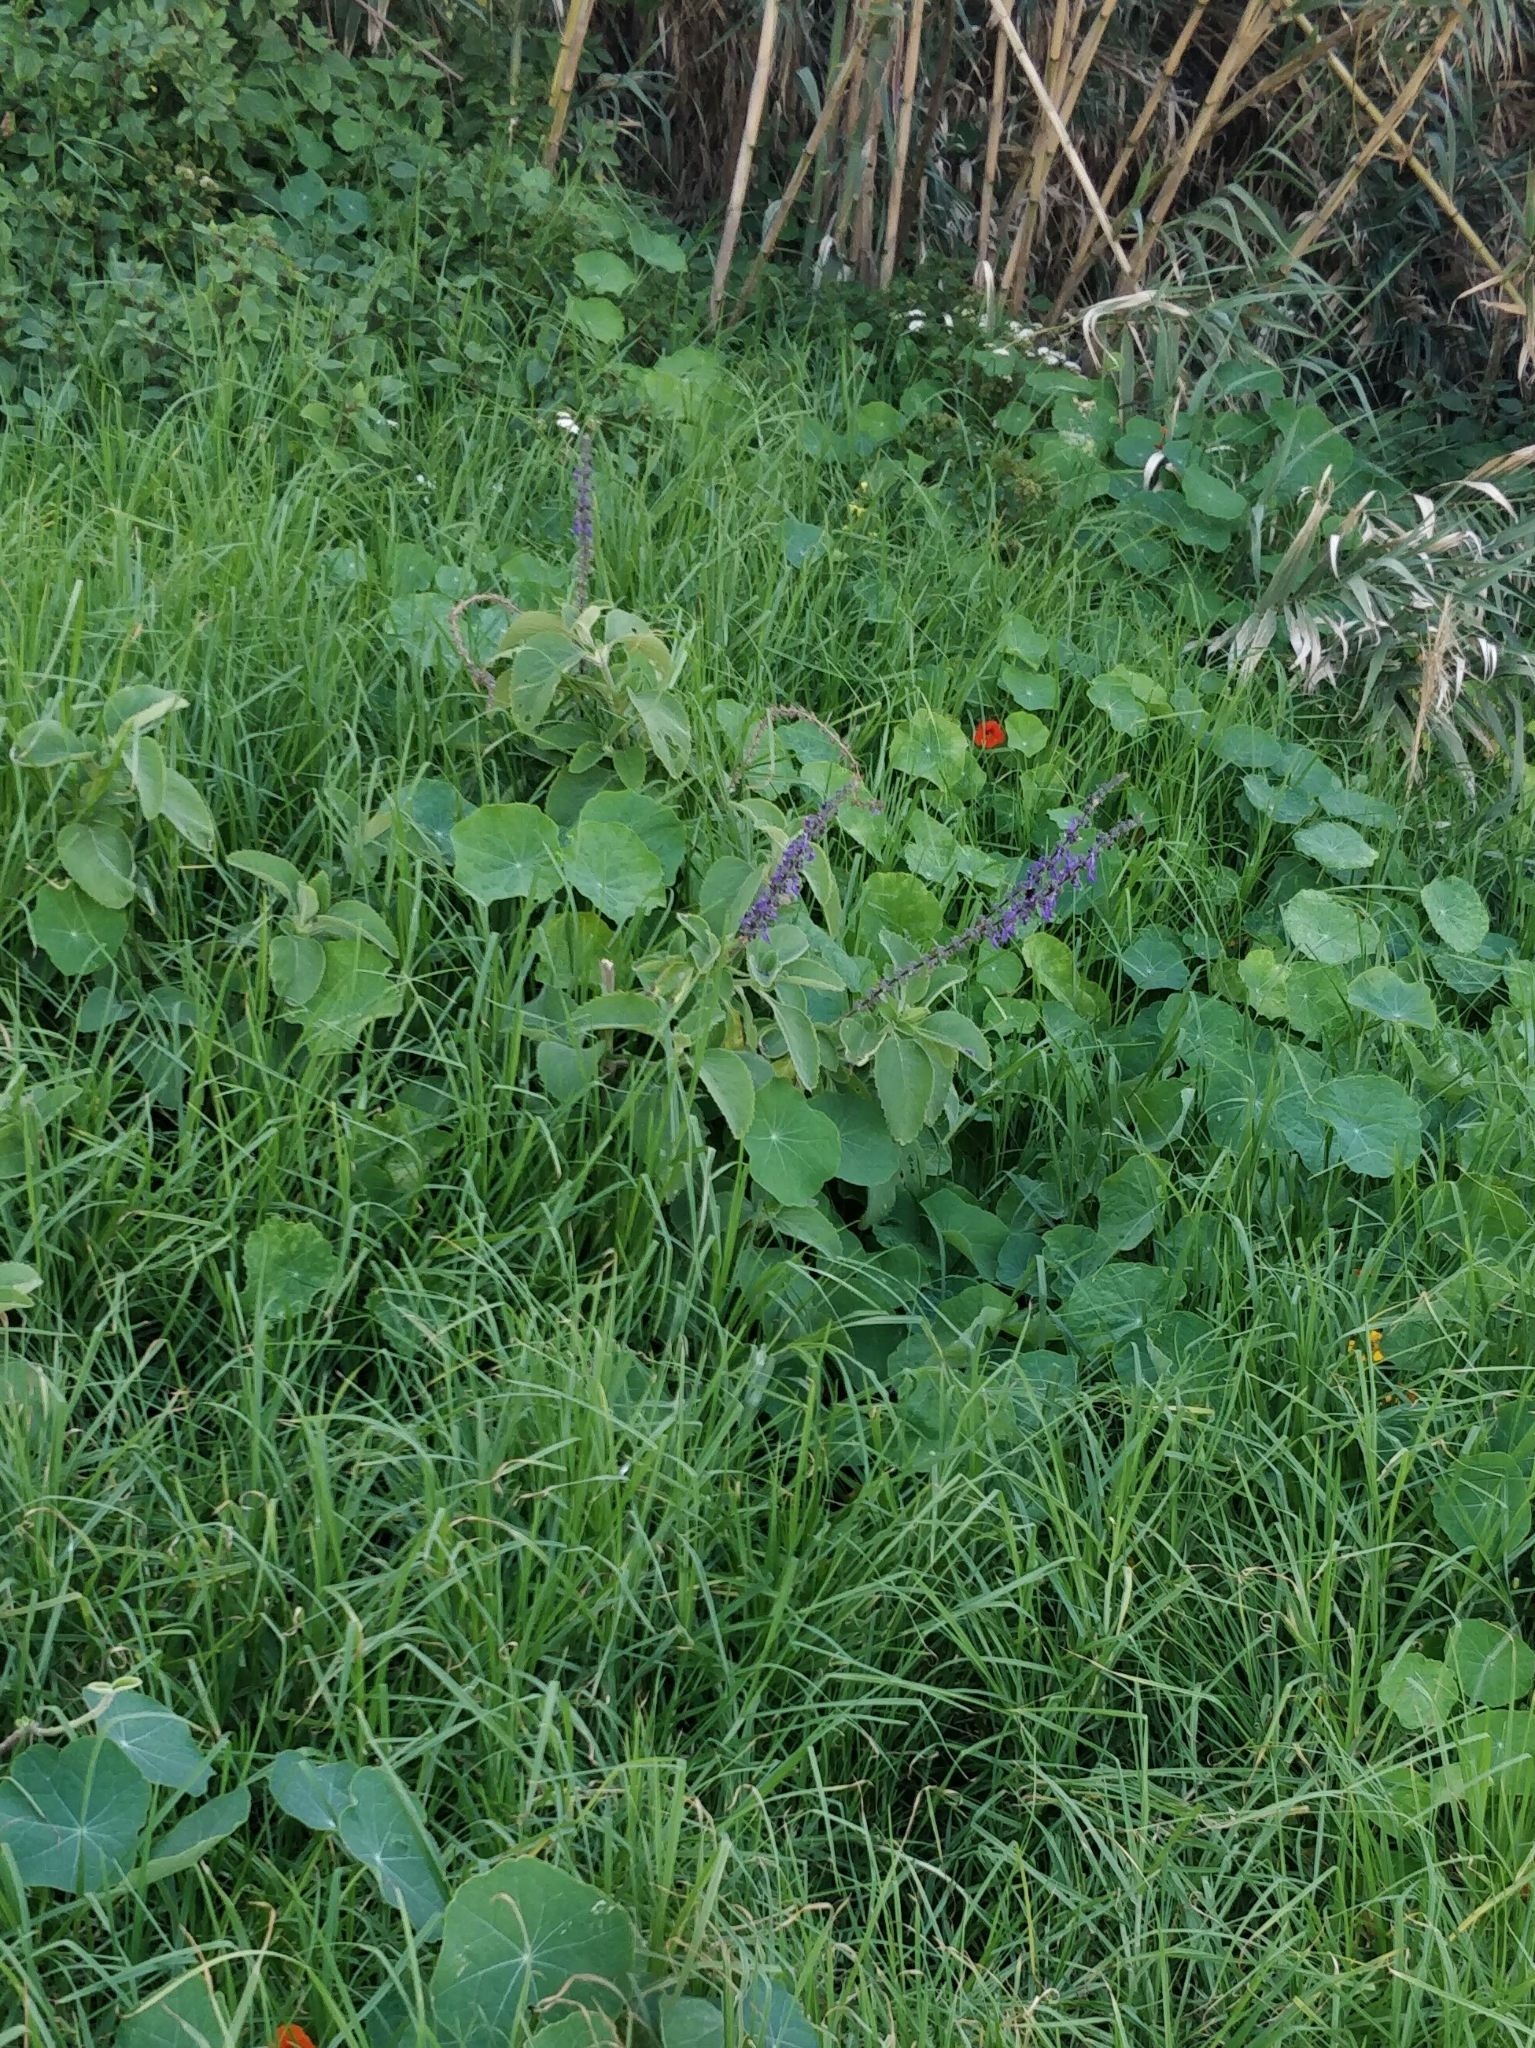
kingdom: Plantae
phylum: Tracheophyta
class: Magnoliopsida
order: Lamiales
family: Lamiaceae
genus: Coleus
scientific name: Coleus barbatus
